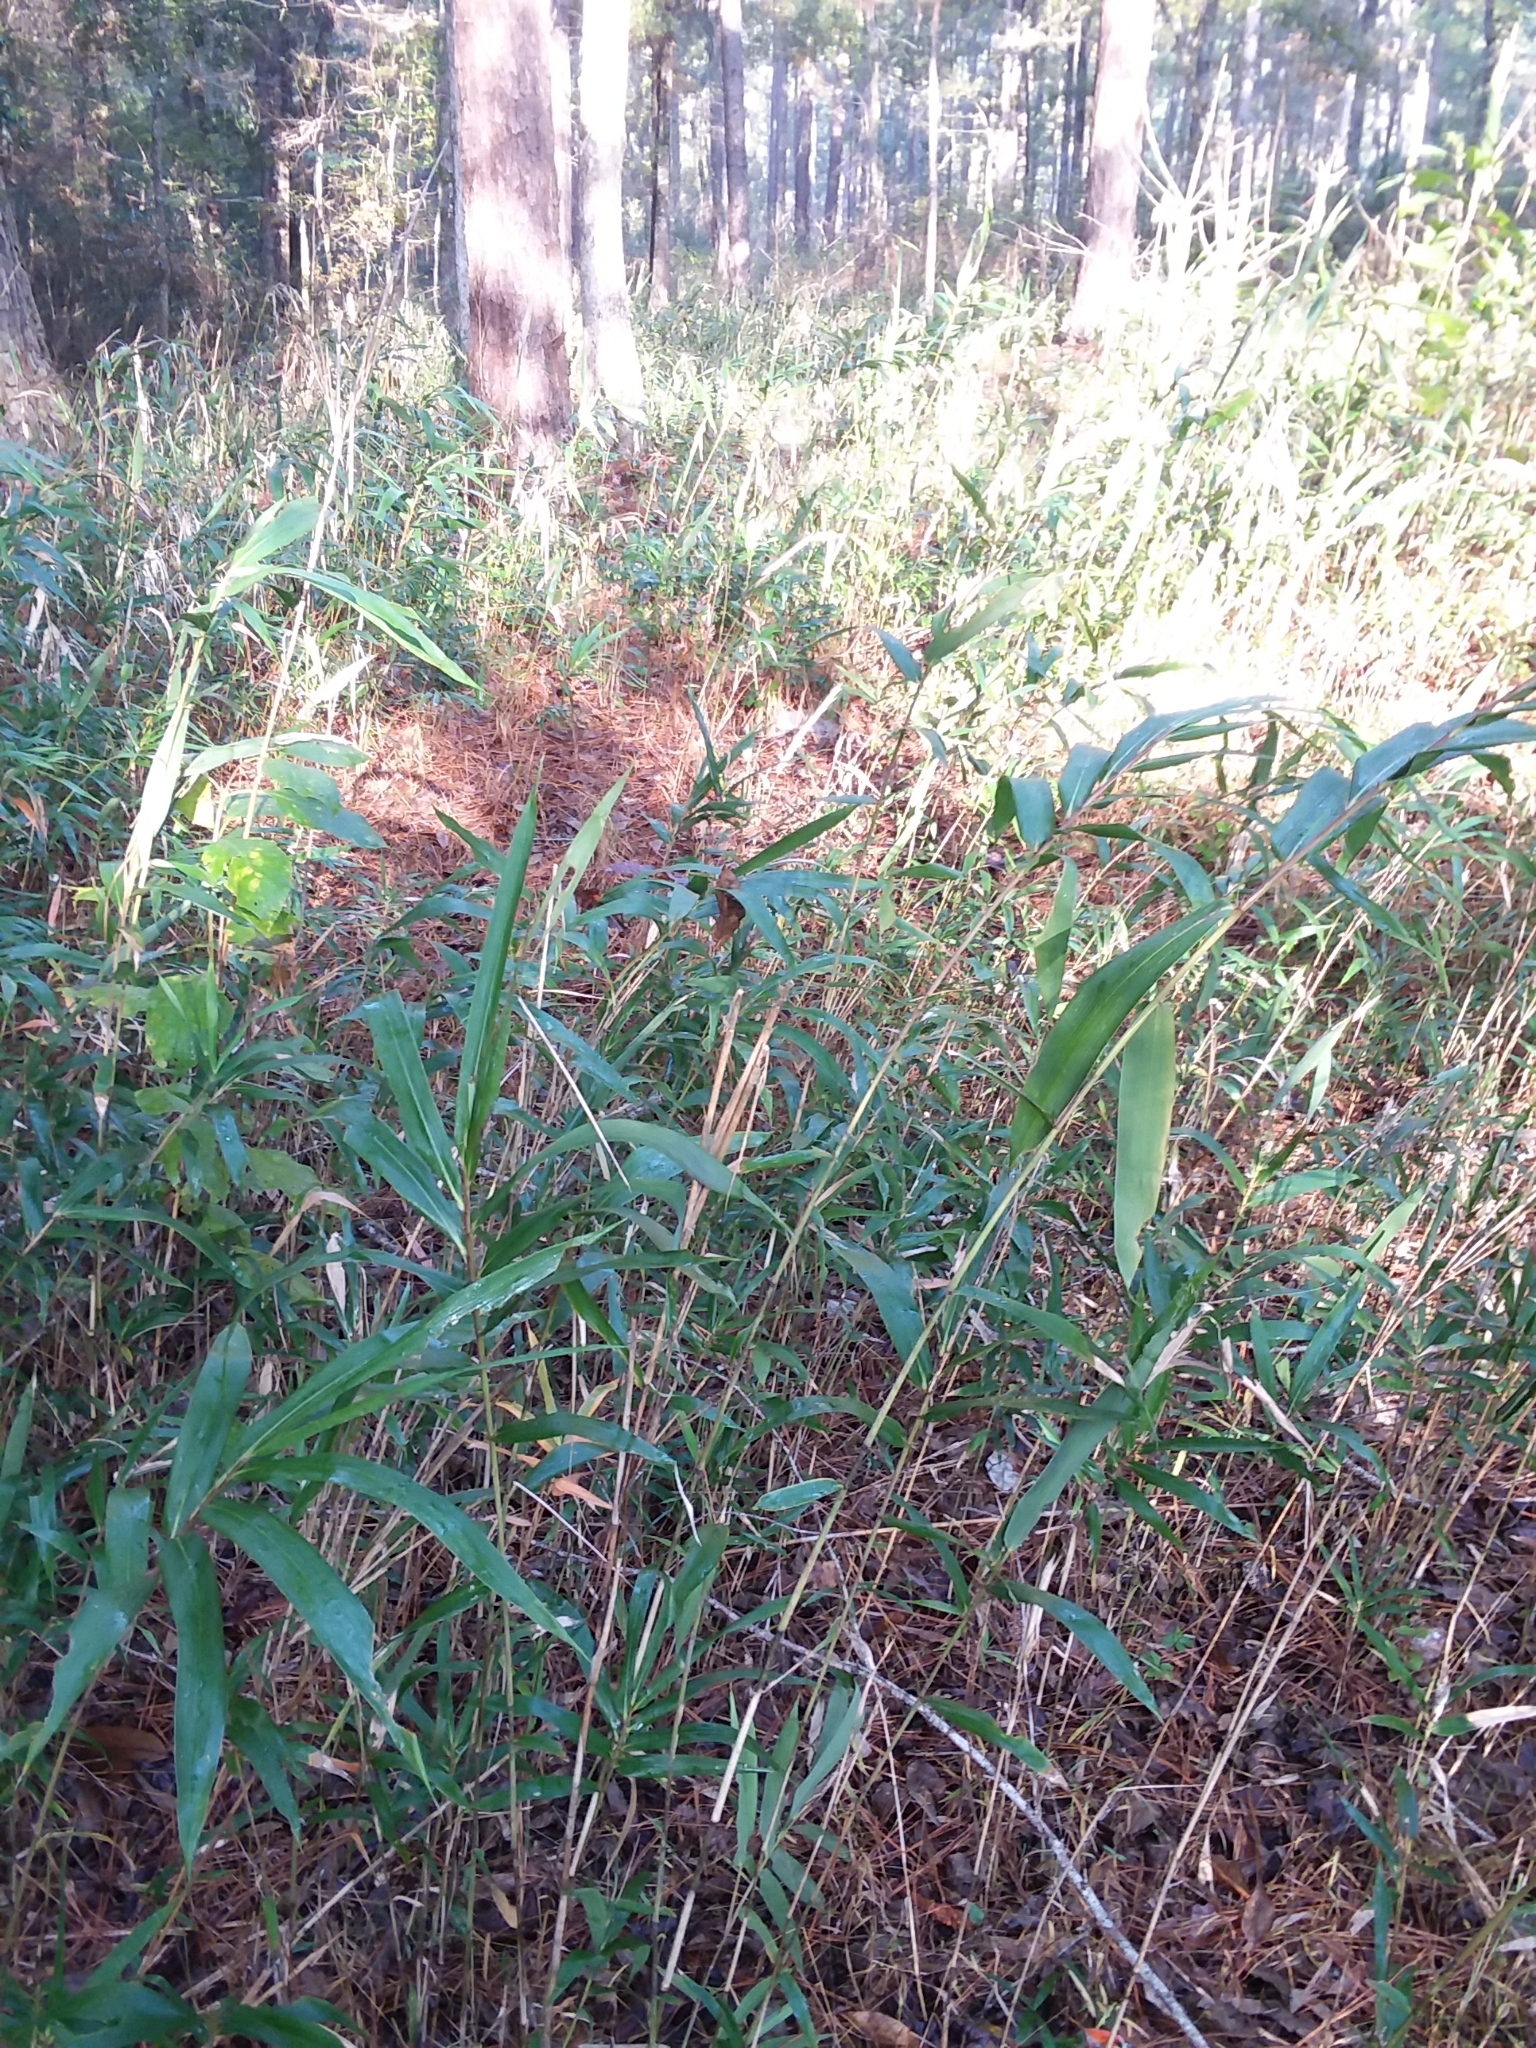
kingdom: Plantae
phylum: Tracheophyta
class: Liliopsida
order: Poales
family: Poaceae
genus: Arundinaria
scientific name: Arundinaria tecta
